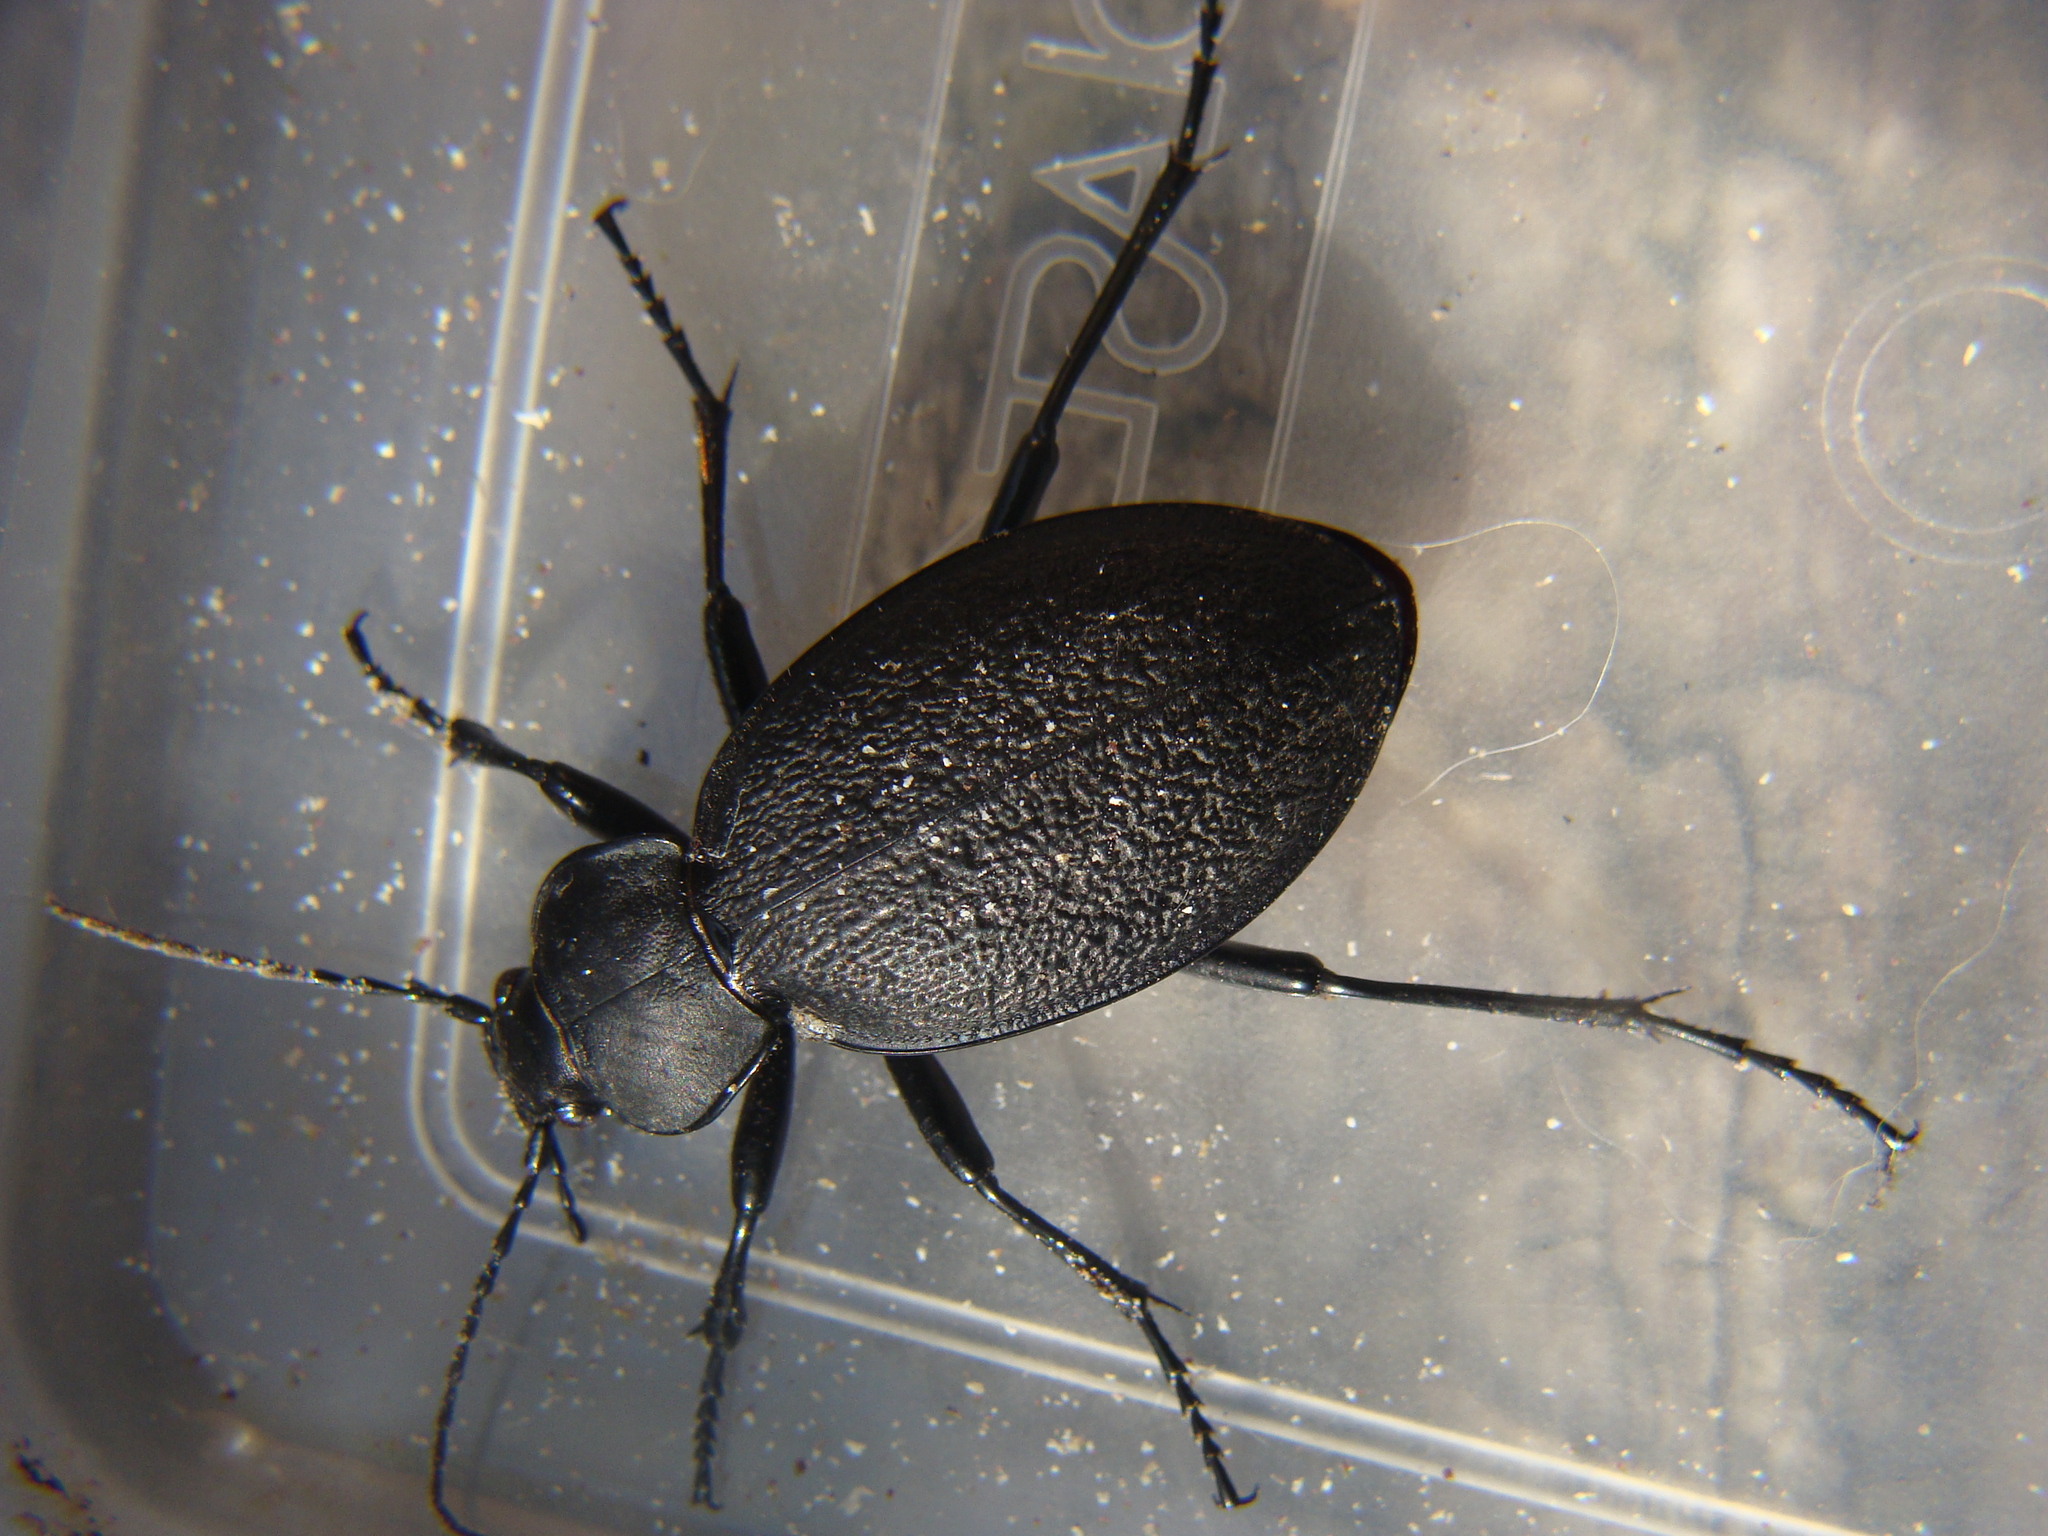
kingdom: Animalia
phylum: Arthropoda
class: Insecta
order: Coleoptera
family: Carabidae
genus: Carabus
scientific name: Carabus coriaceus
